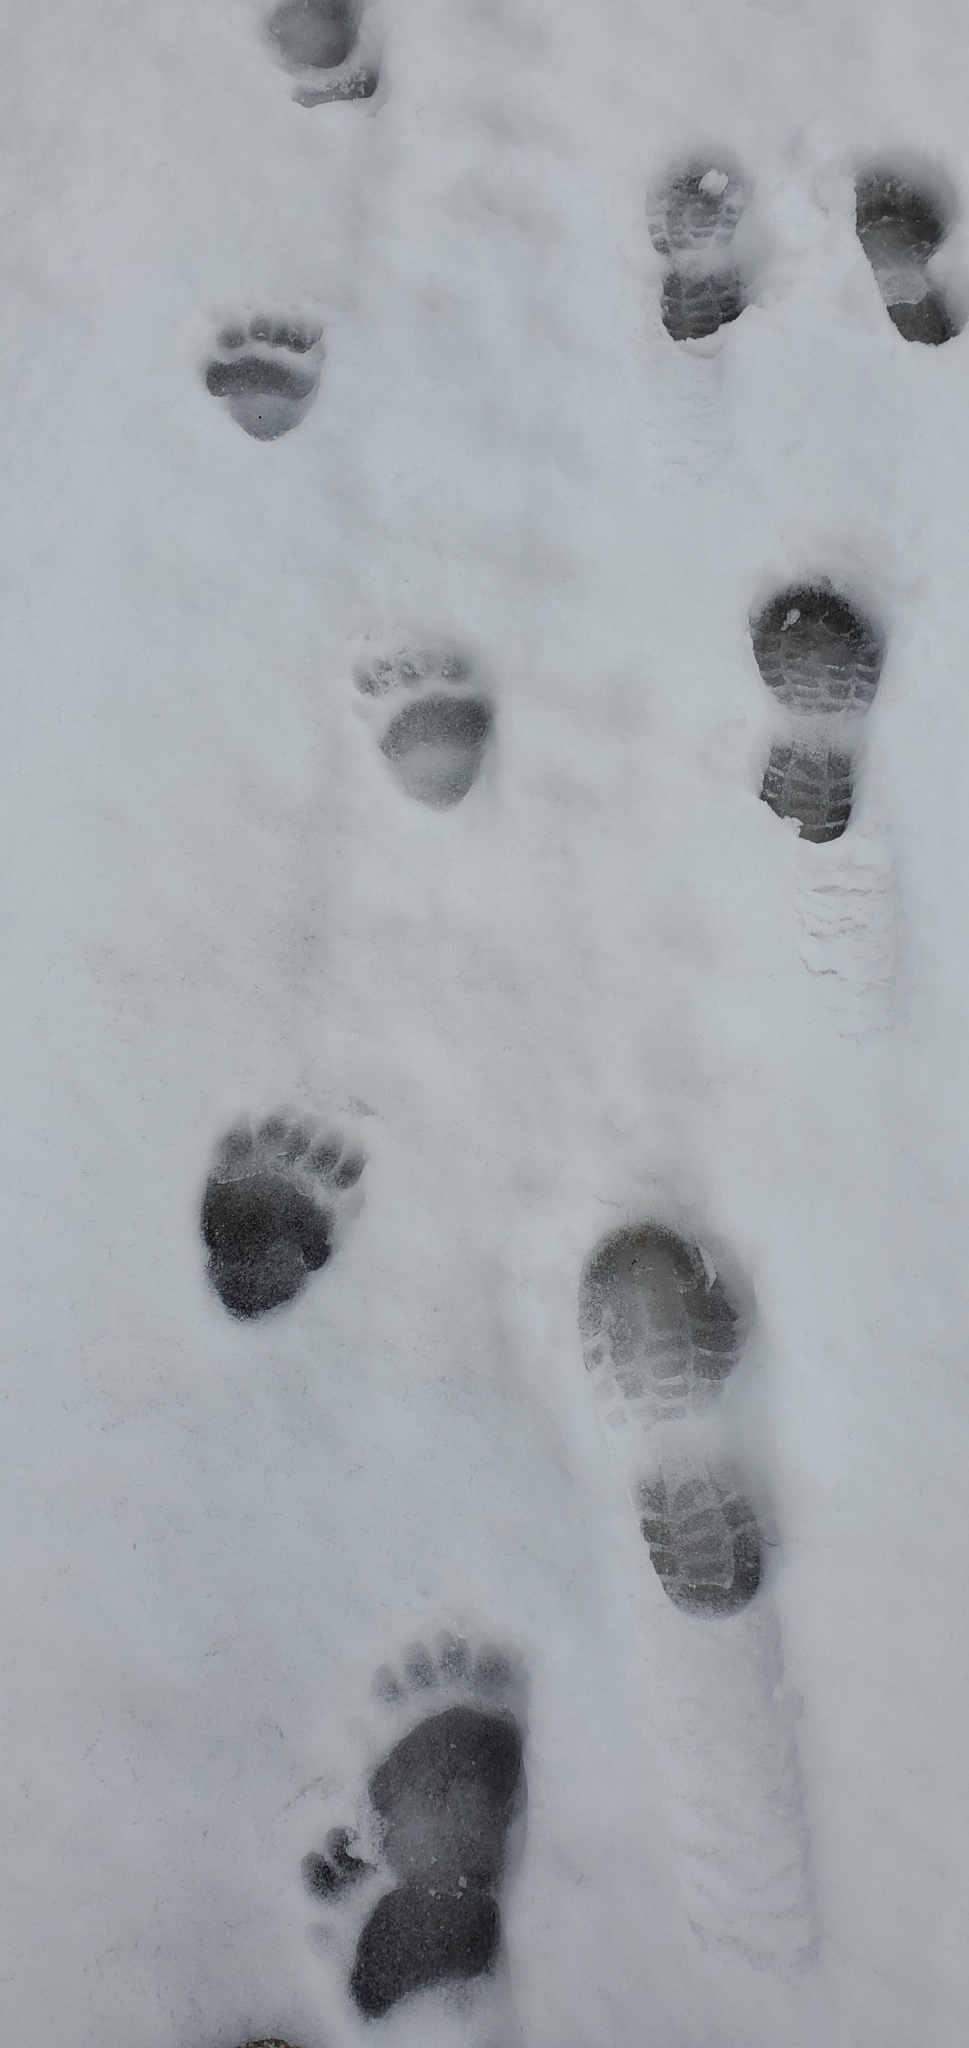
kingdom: Animalia
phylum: Chordata
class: Mammalia
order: Carnivora
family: Ursidae
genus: Ursus
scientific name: Ursus americanus
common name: American black bear
